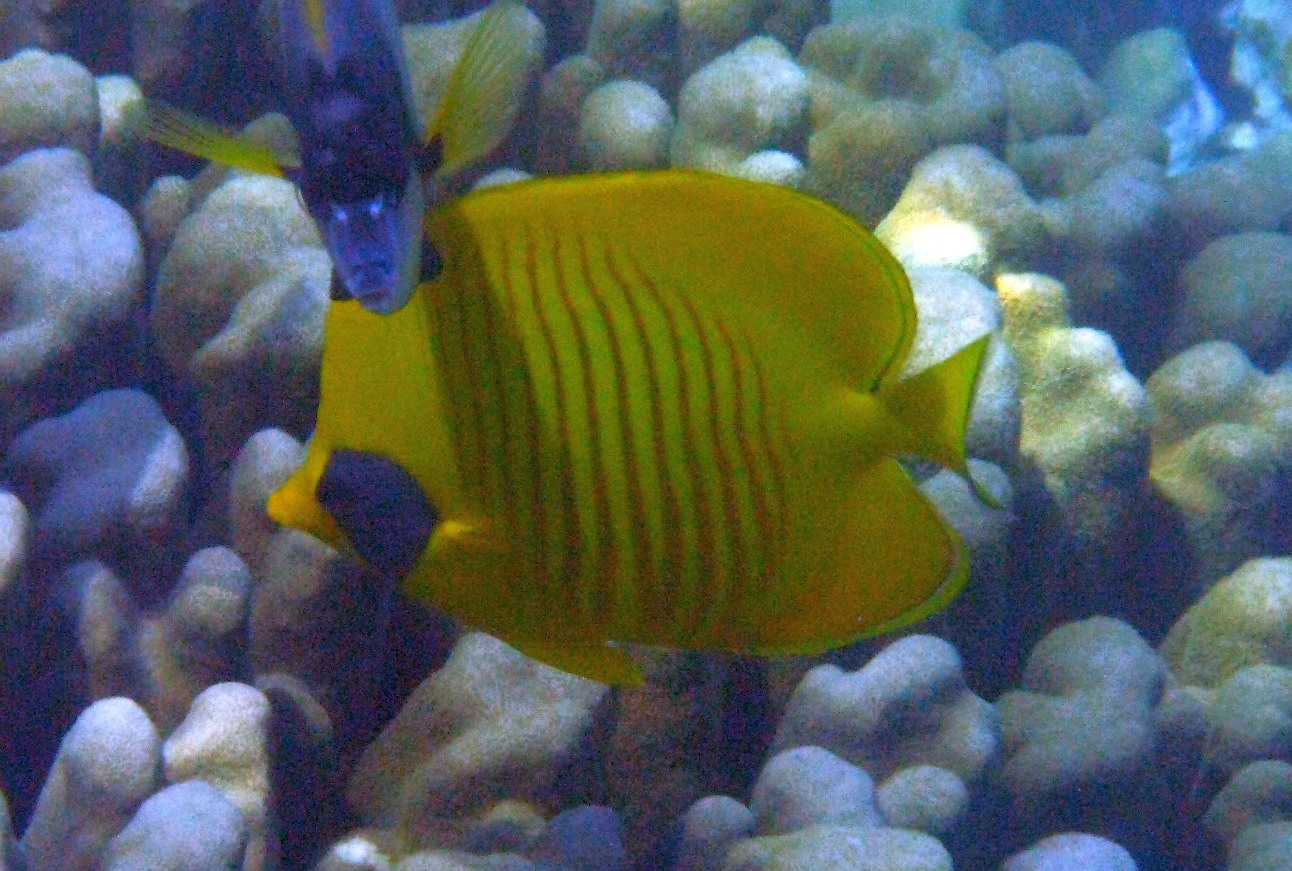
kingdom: Animalia
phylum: Chordata
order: Perciformes
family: Chaetodontidae
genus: Chaetodon
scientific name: Chaetodon semilarvatus
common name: Golden butterflyfish
